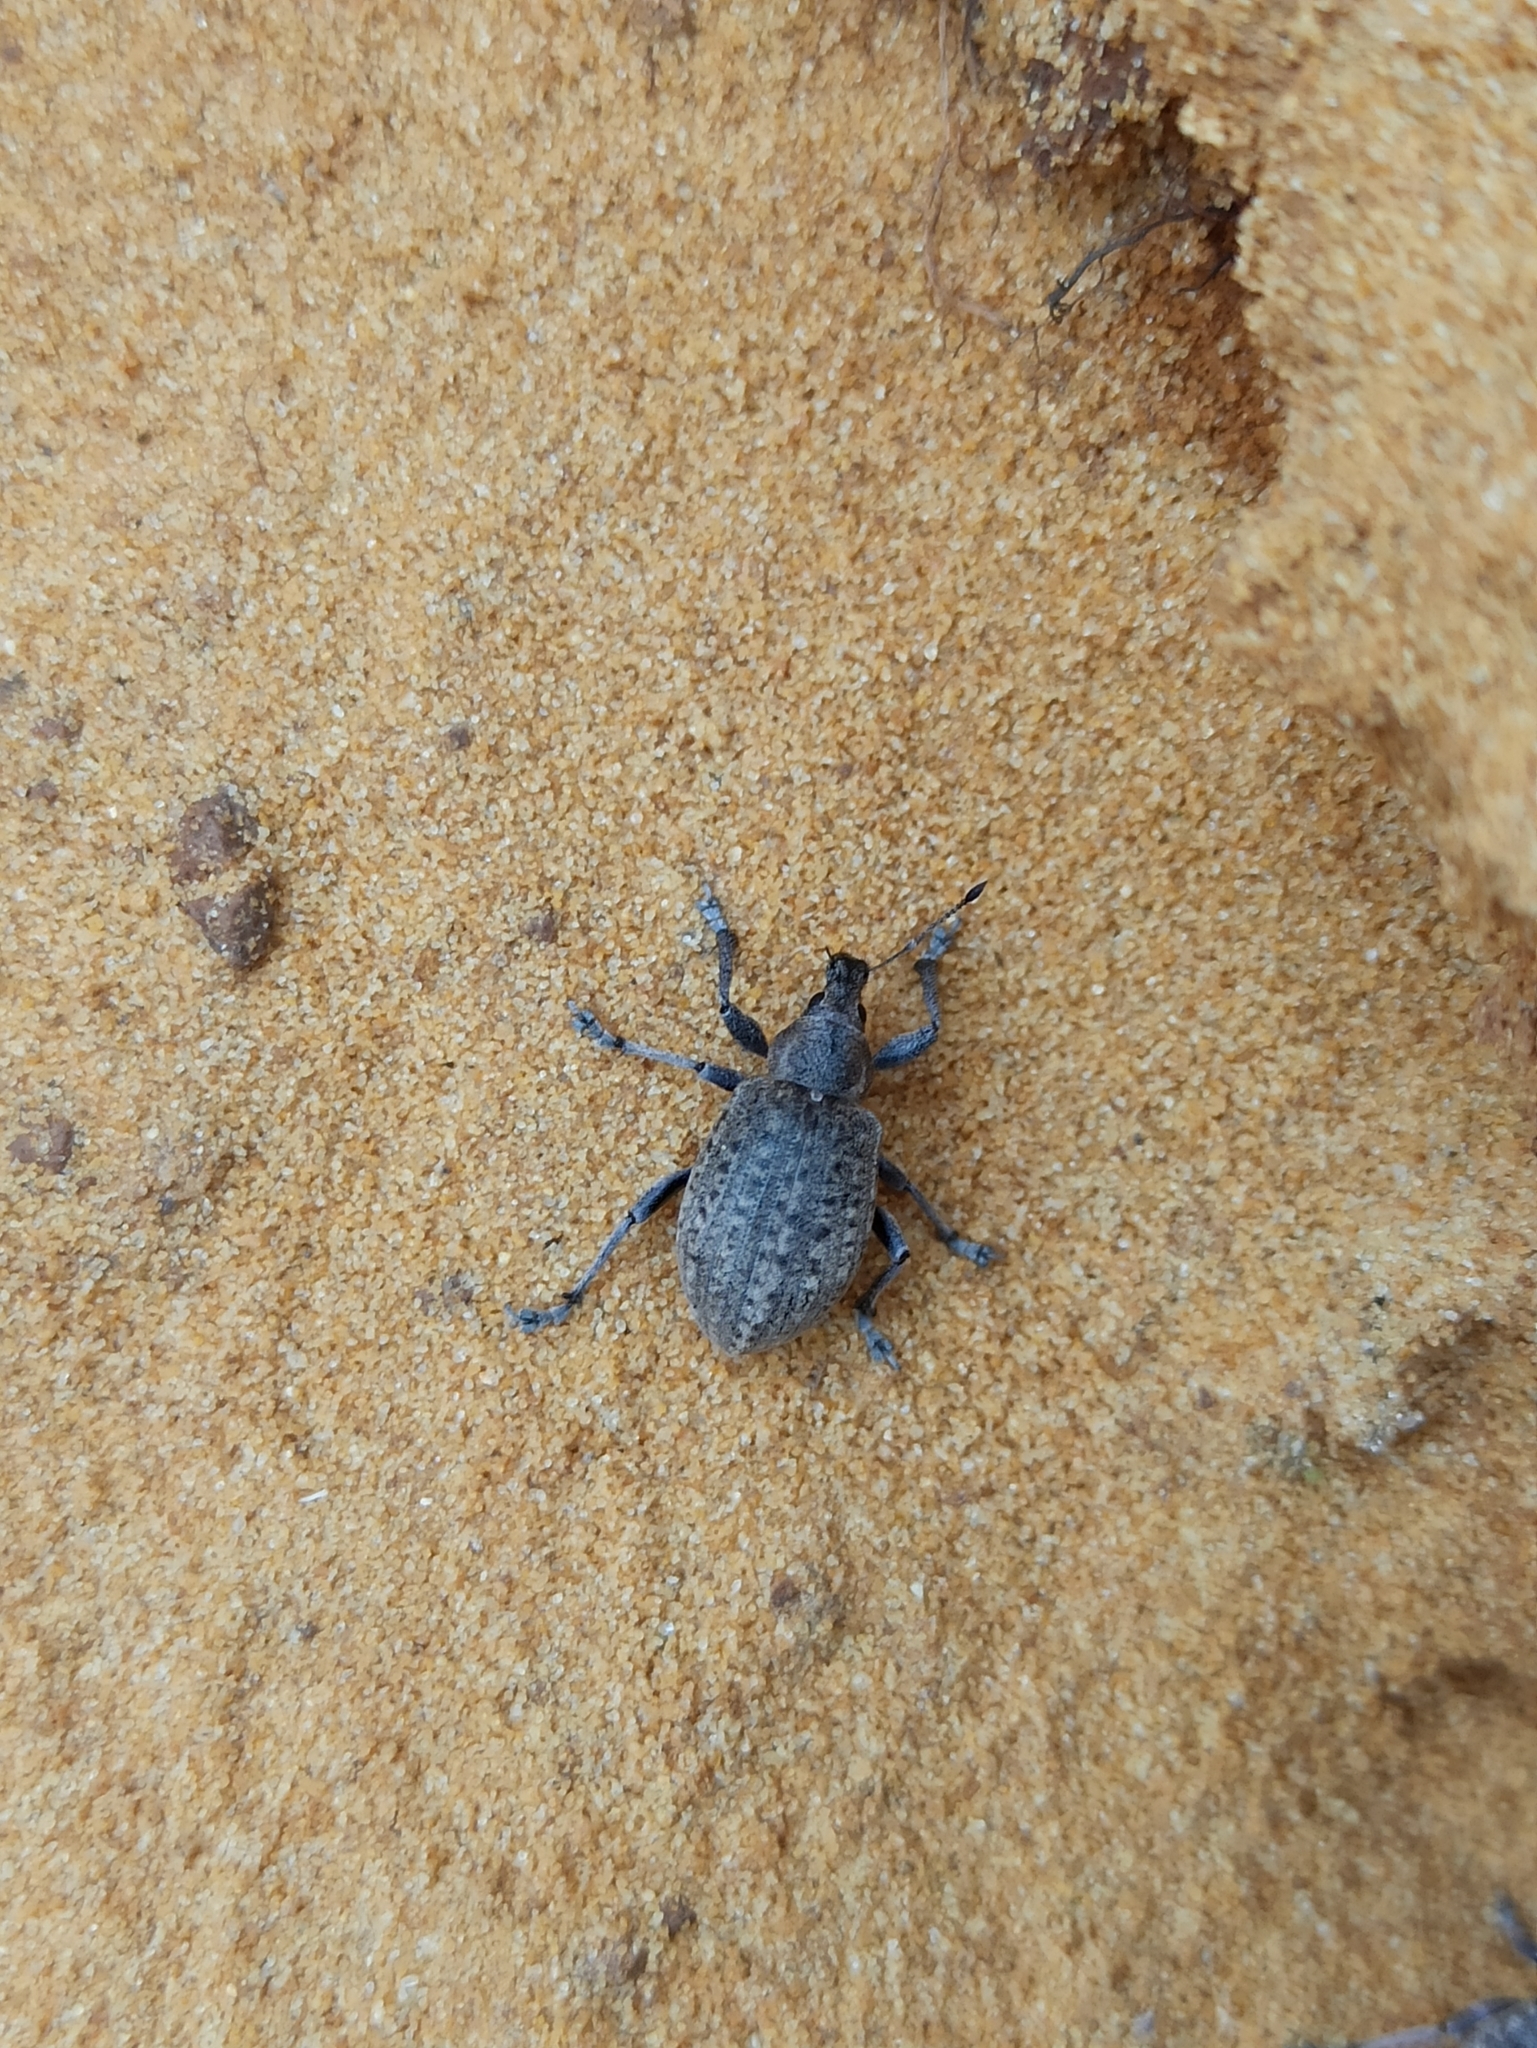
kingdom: Animalia
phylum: Arthropoda
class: Insecta
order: Coleoptera
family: Curculionidae
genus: Liophloeus
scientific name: Liophloeus tessulatus
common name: Weevil
